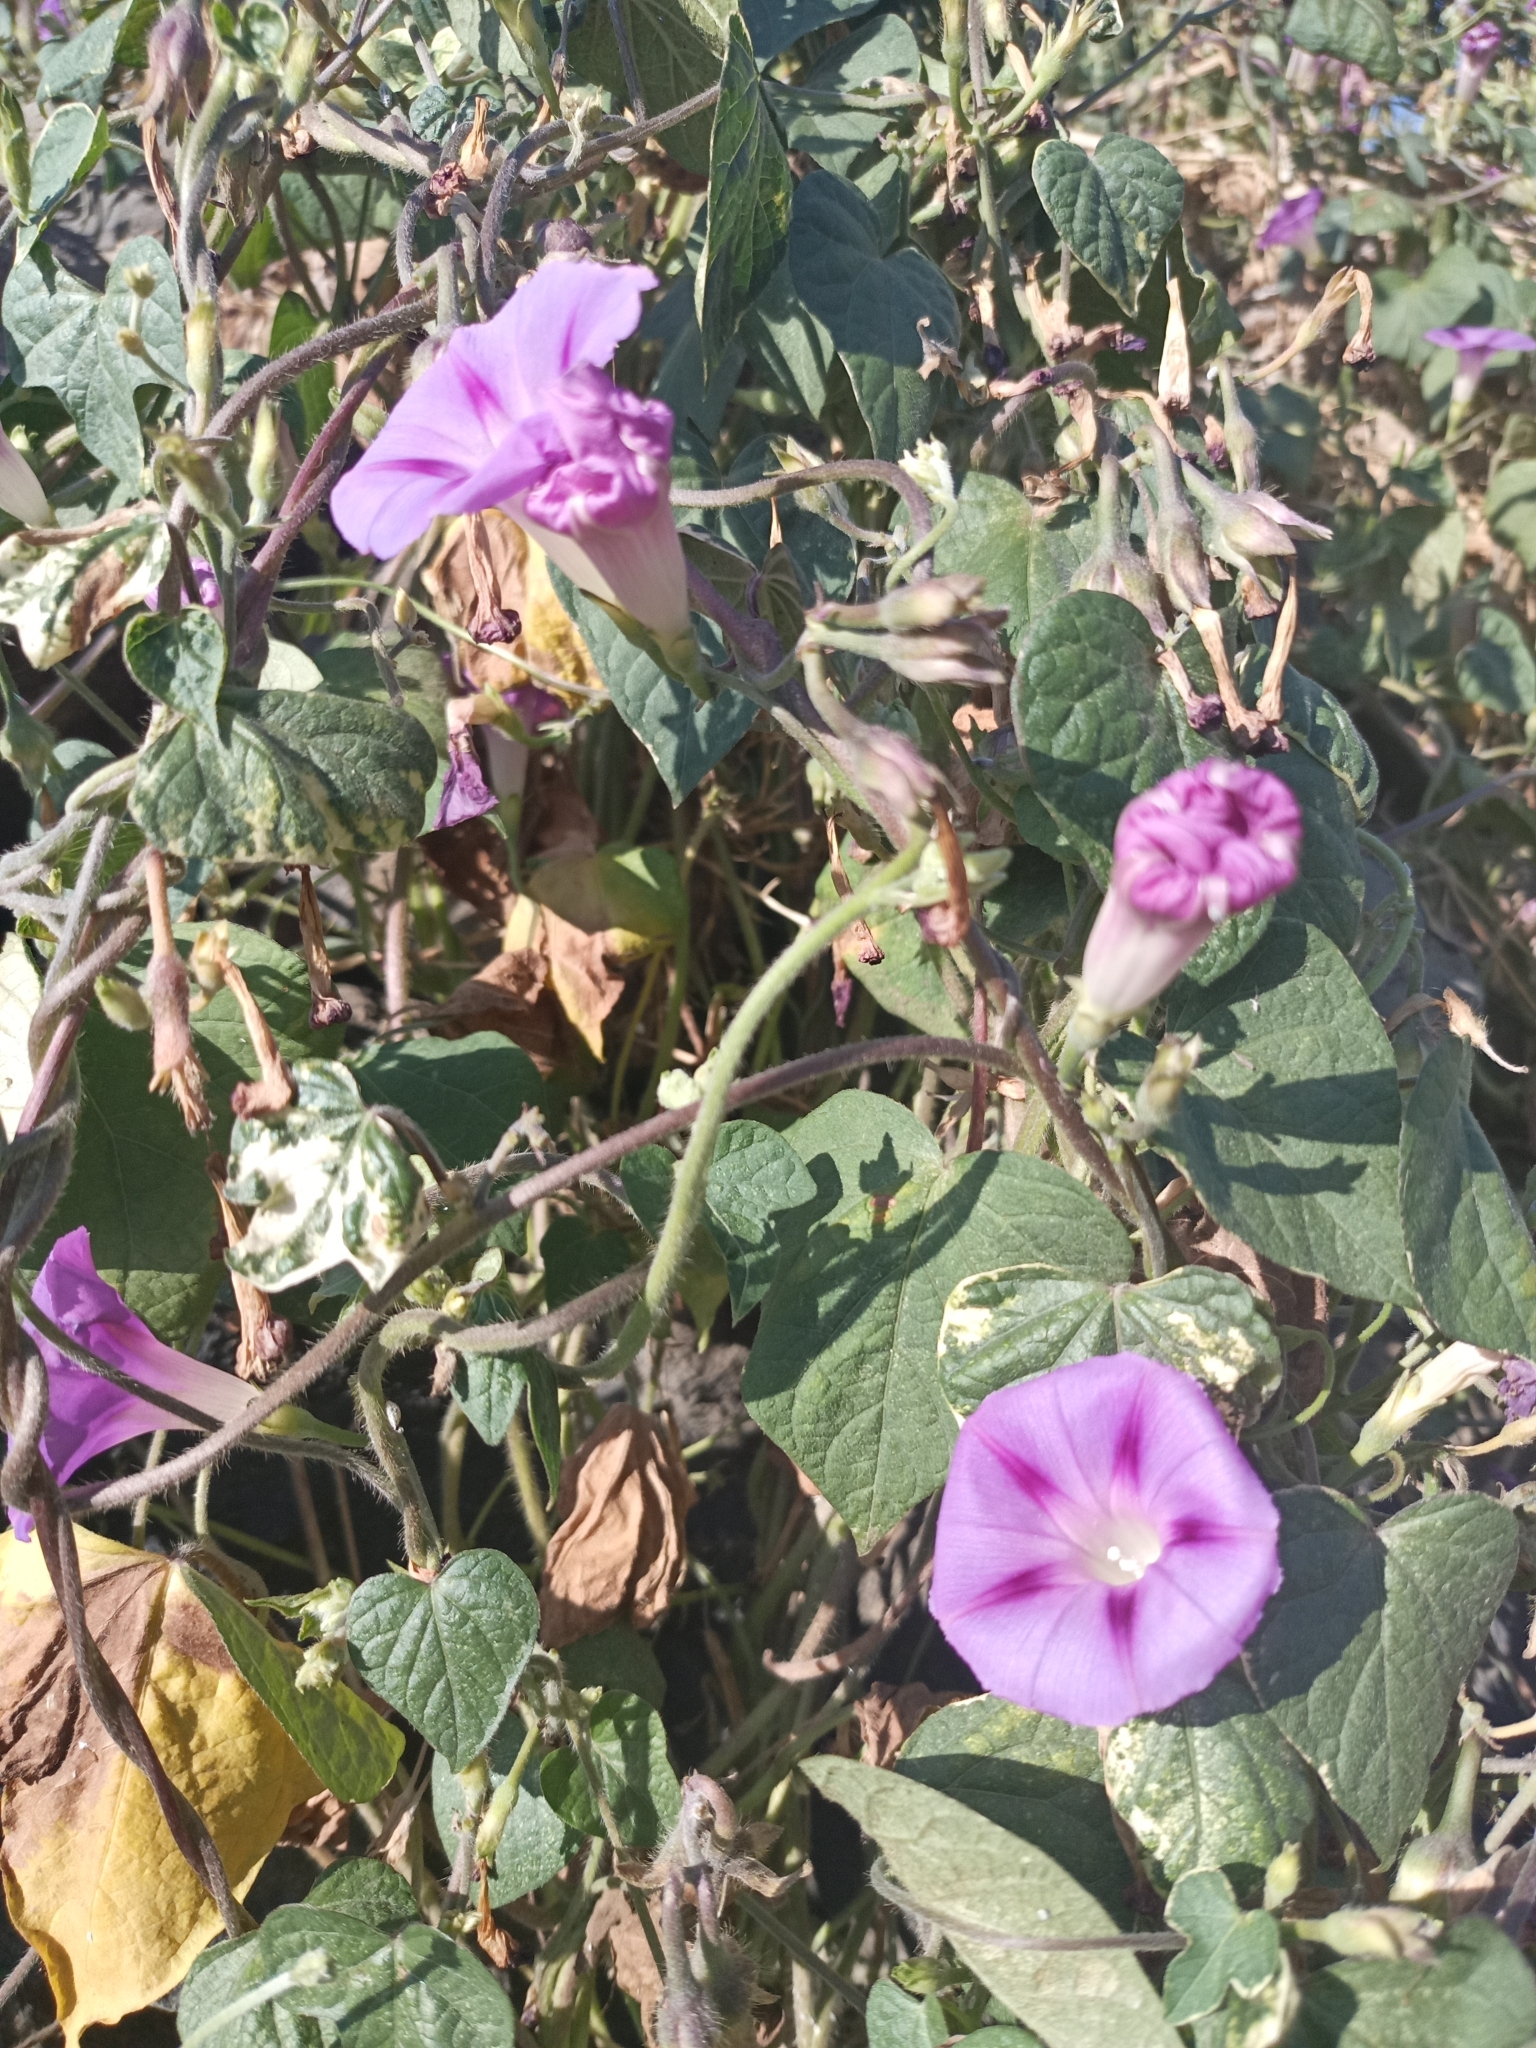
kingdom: Plantae
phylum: Tracheophyta
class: Magnoliopsida
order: Solanales
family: Convolvulaceae
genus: Ipomoea
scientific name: Ipomoea purpurea
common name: Common morning-glory
